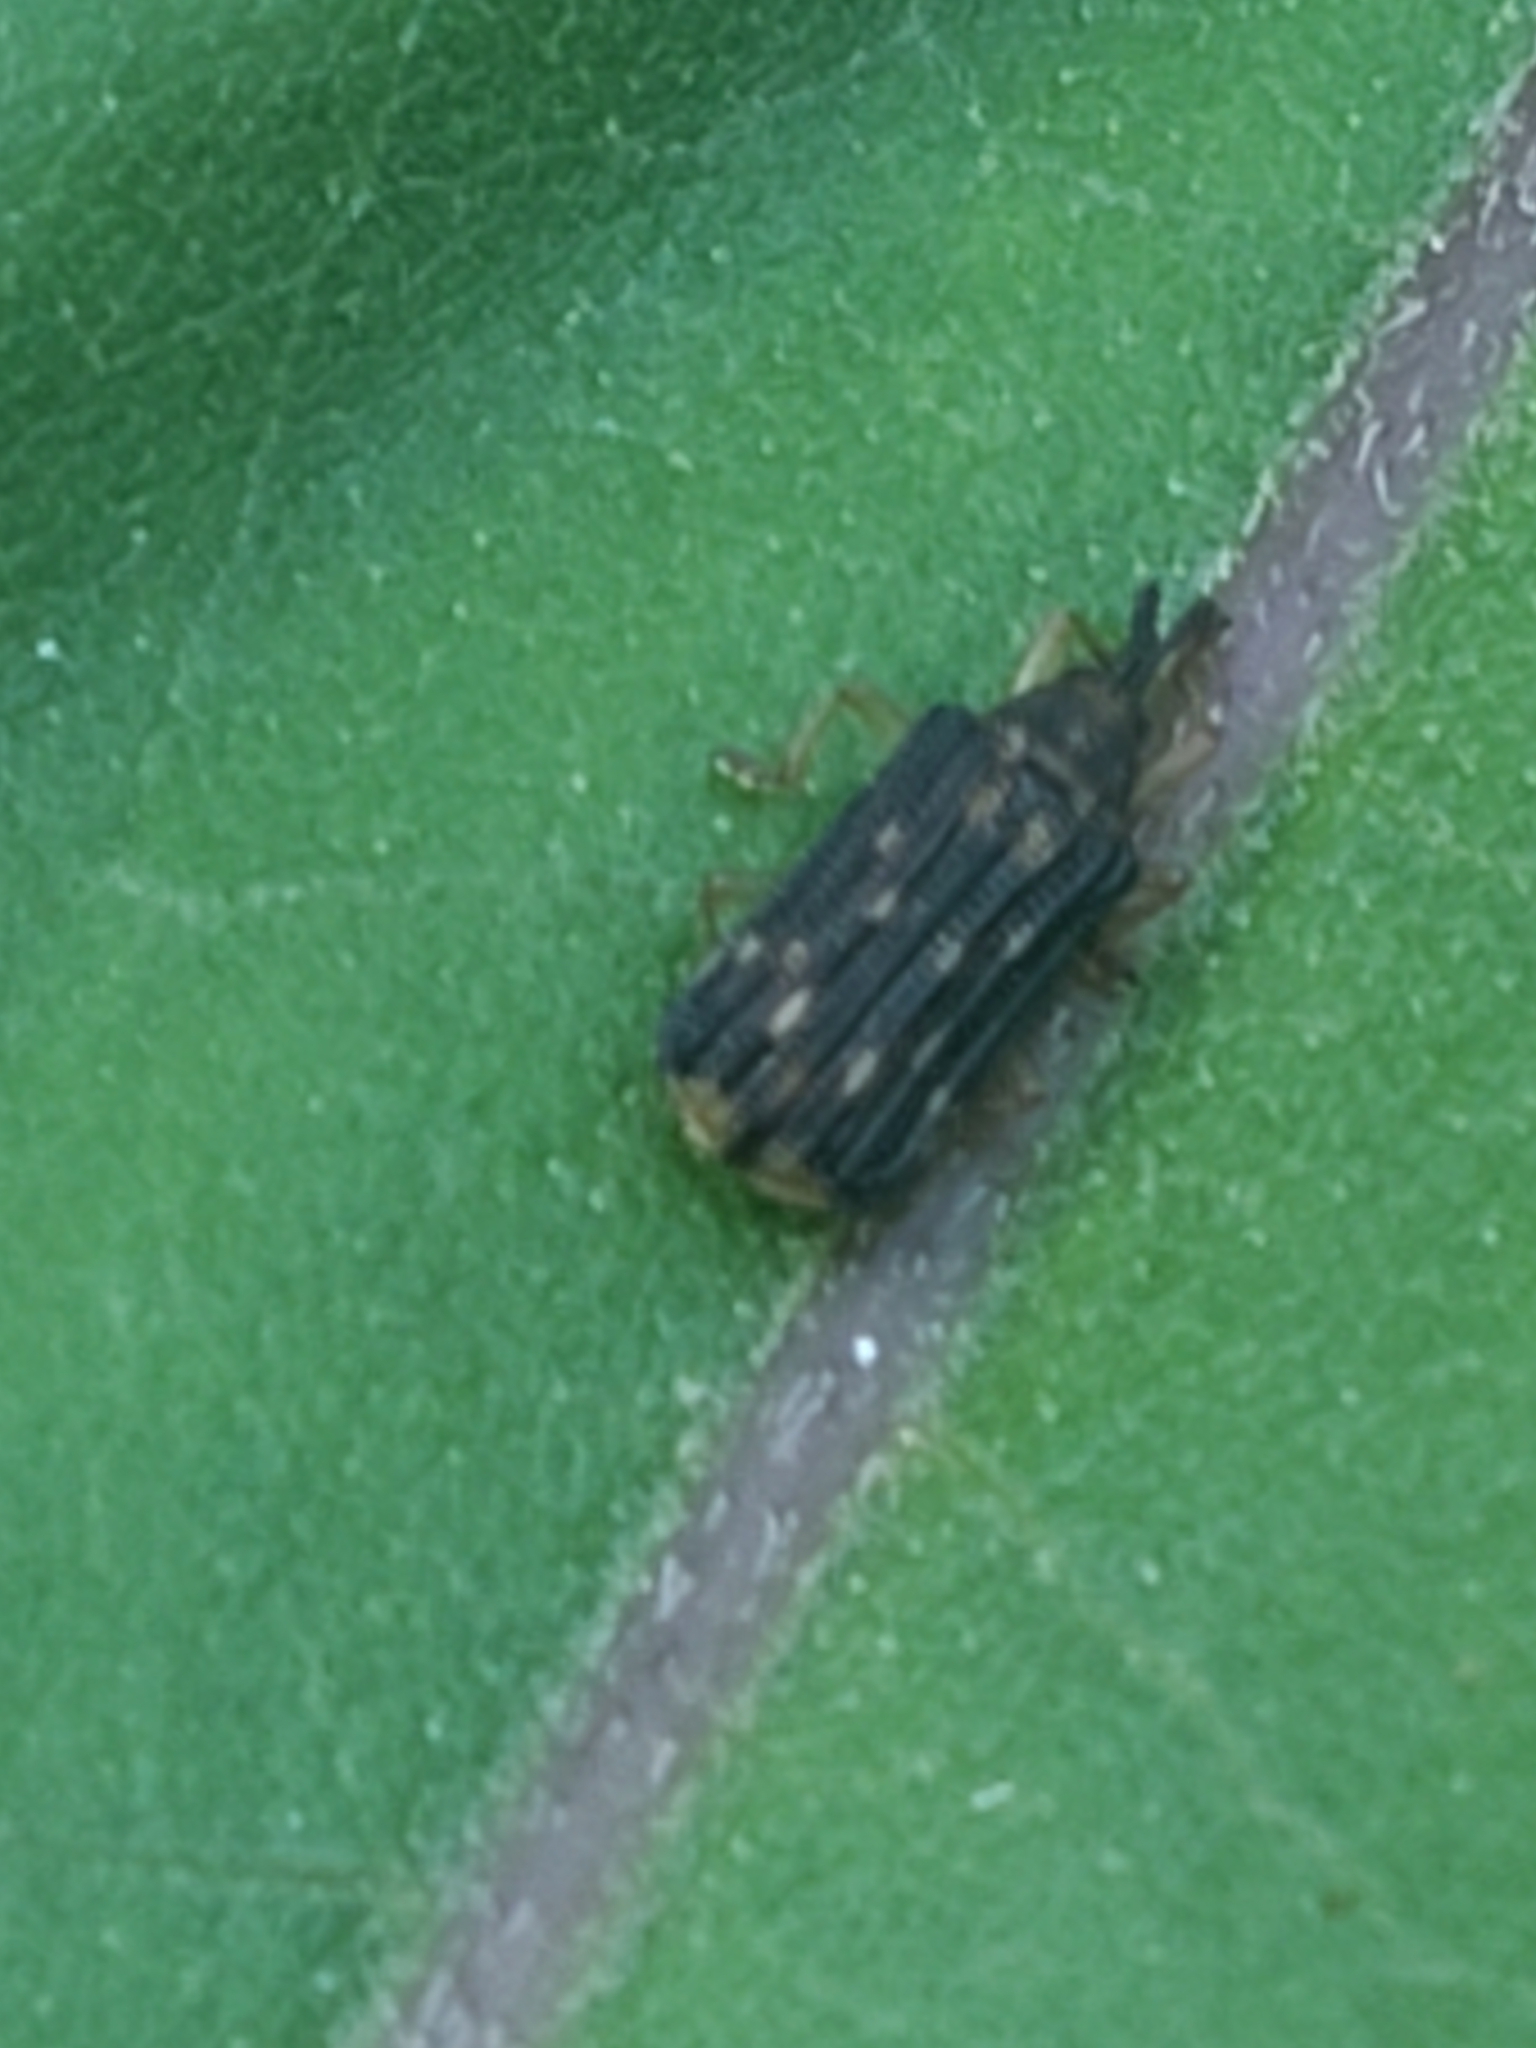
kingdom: Animalia
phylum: Arthropoda
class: Insecta
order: Coleoptera
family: Chrysomelidae
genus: Sumitrosis
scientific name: Sumitrosis inaequalis
